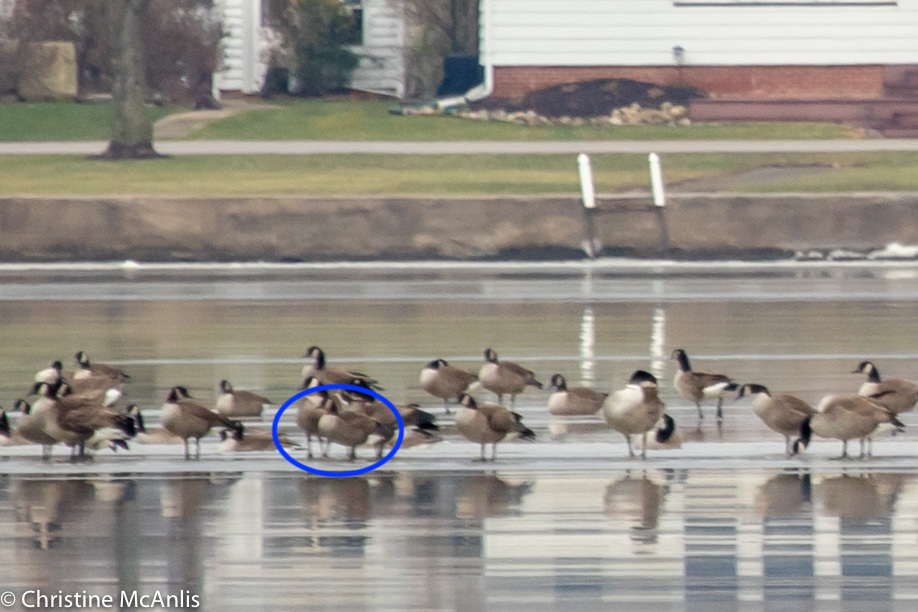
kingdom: Animalia
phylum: Chordata
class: Aves
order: Anseriformes
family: Anatidae
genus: Branta
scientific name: Branta hutchinsii
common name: Cackling goose
